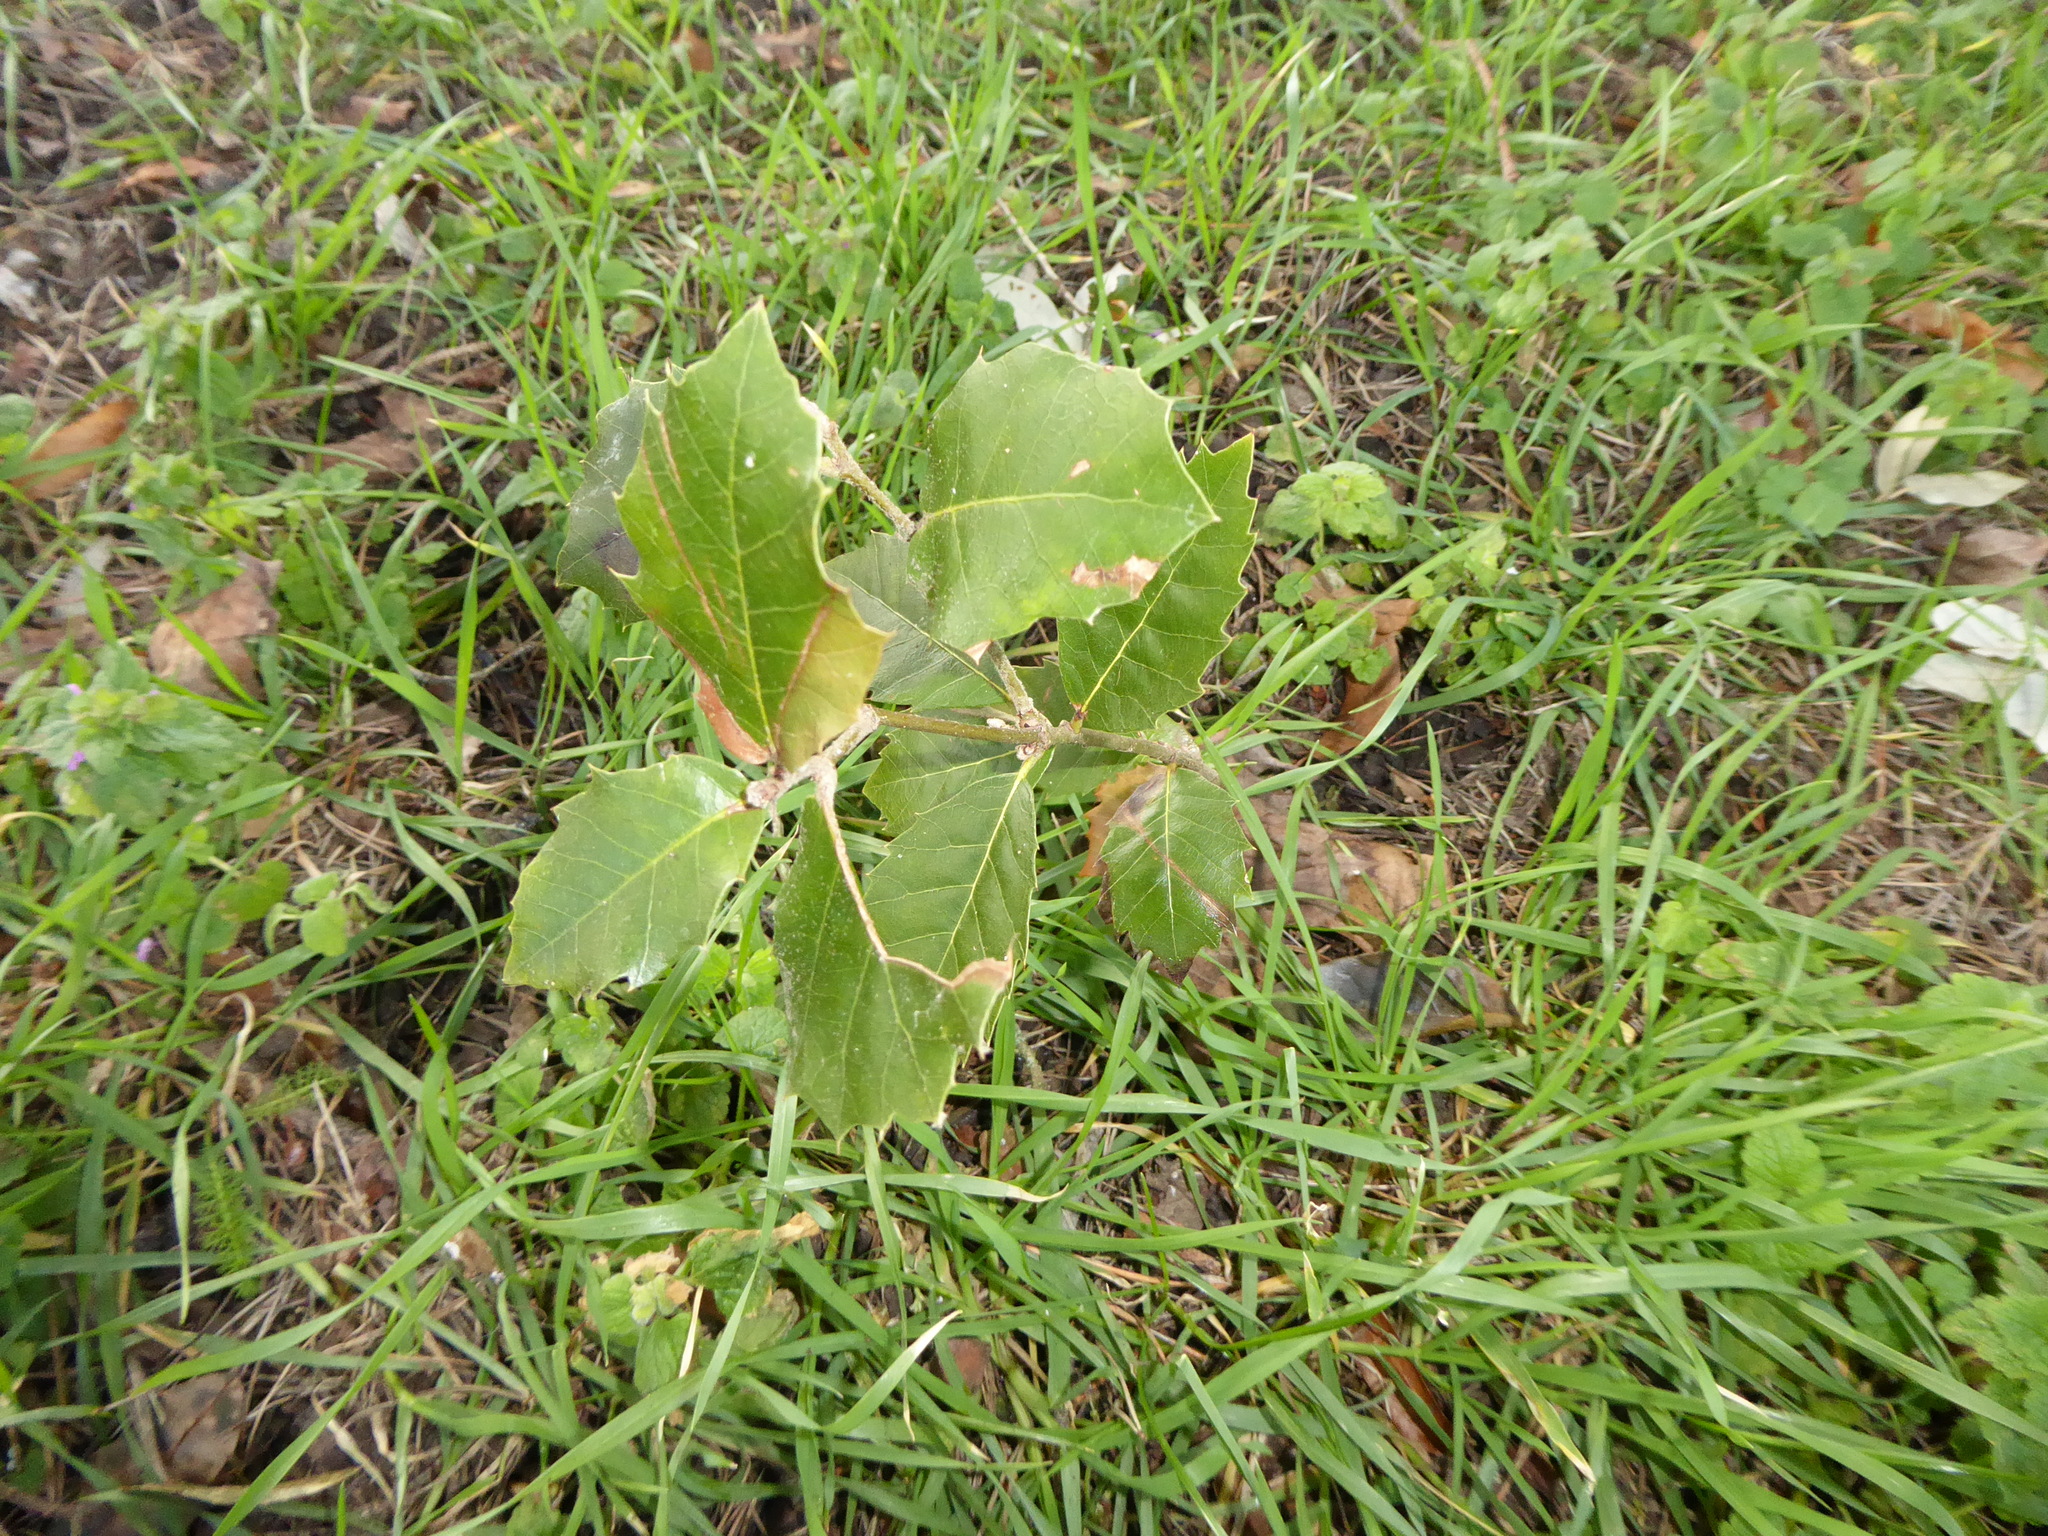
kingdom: Plantae
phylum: Tracheophyta
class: Magnoliopsida
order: Fagales
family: Fagaceae
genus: Quercus
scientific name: Quercus ilex
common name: Evergreen oak
